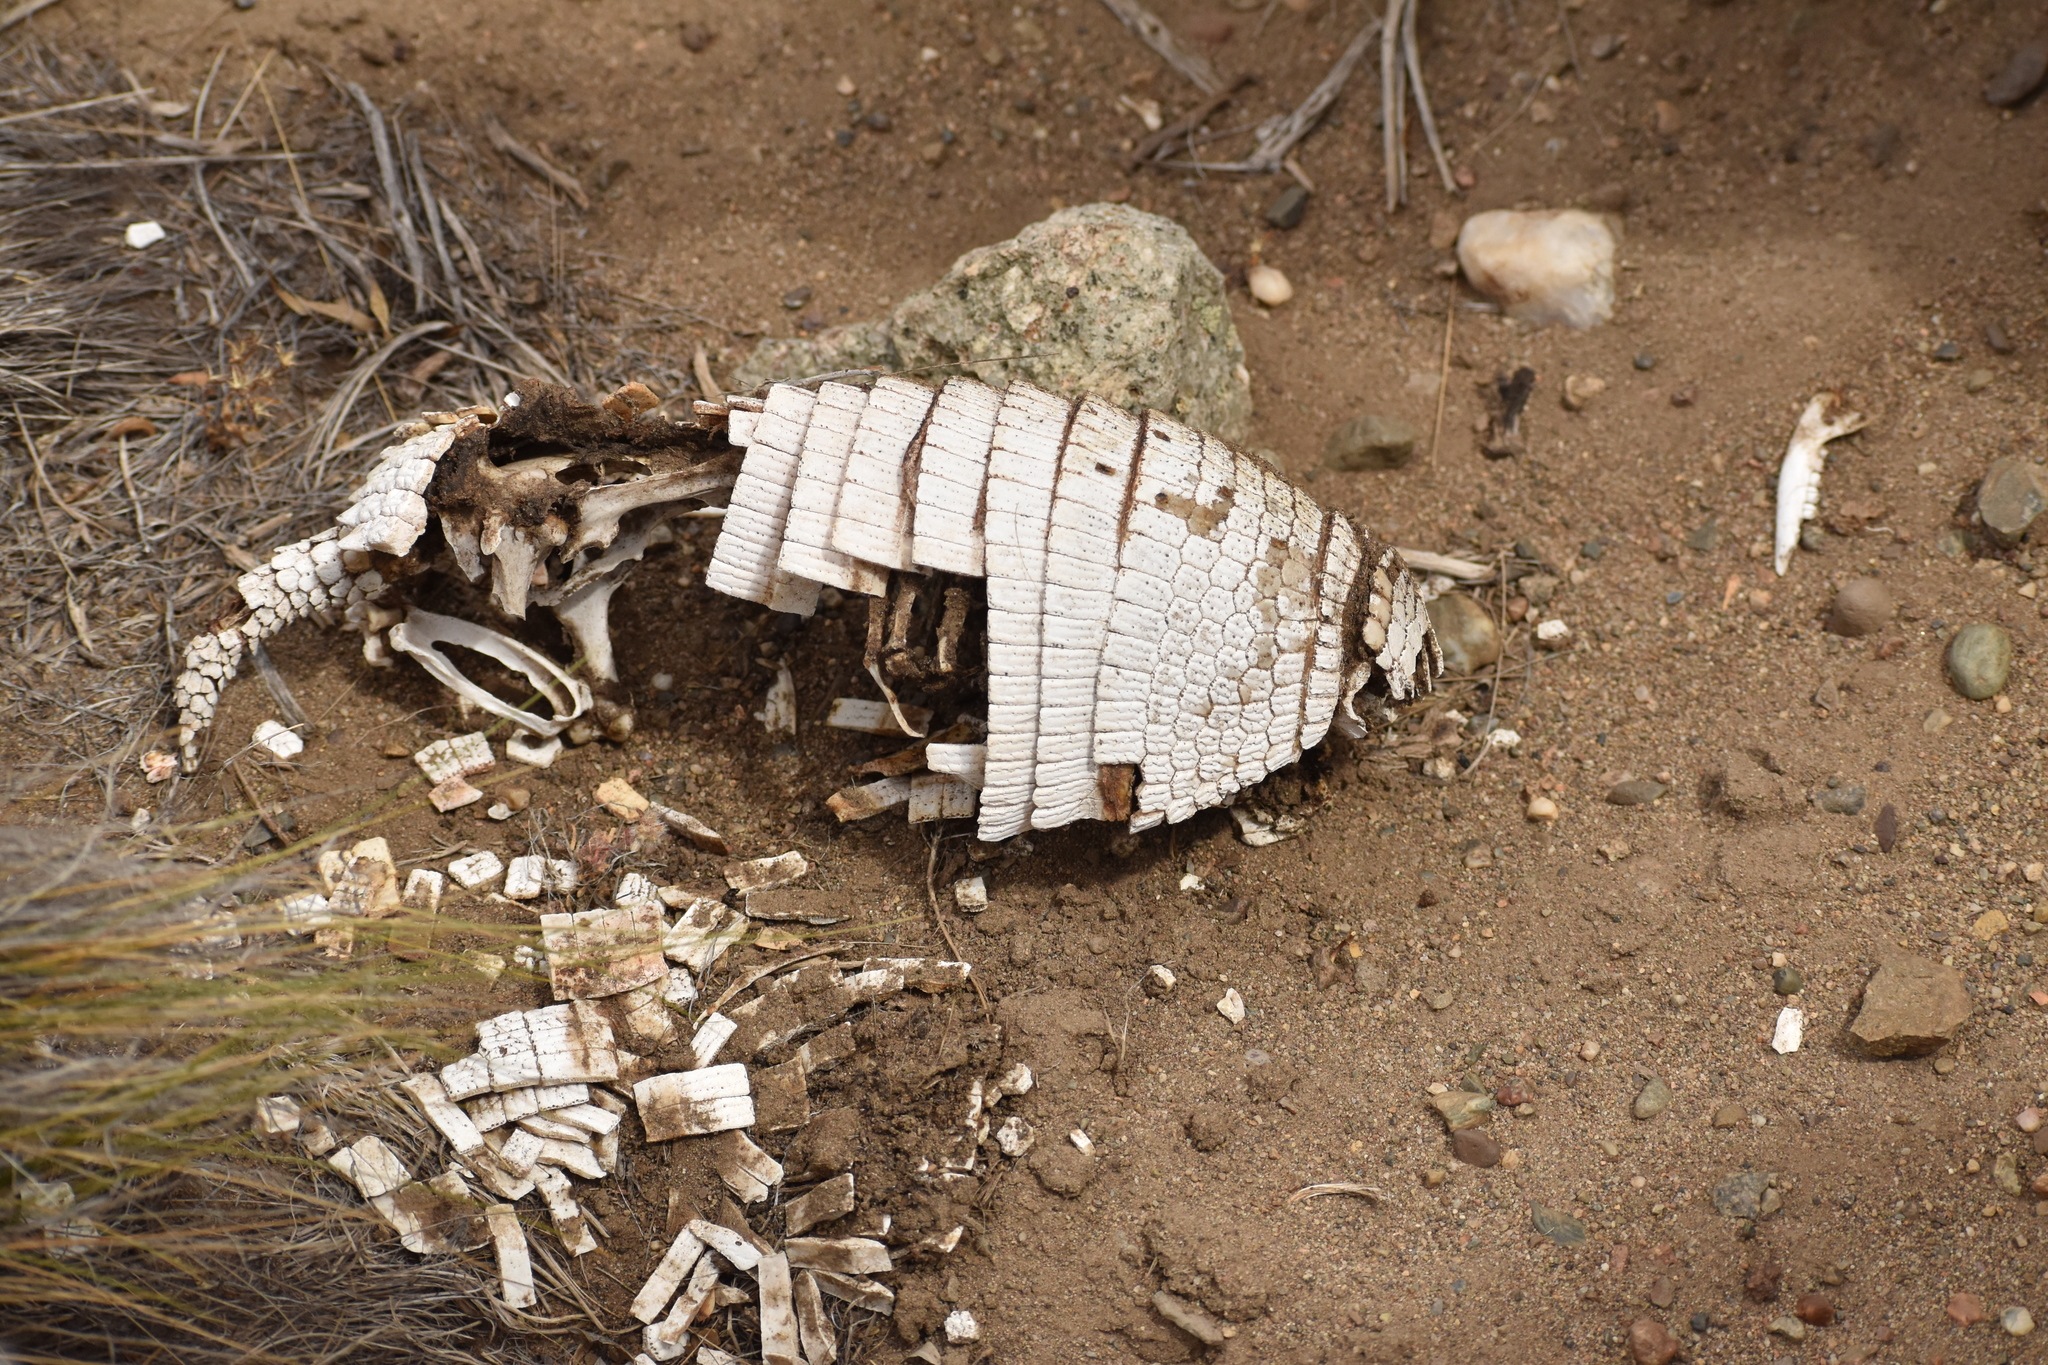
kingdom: Animalia
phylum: Chordata
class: Mammalia
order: Cingulata
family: Dasypodidae
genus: Zaedyus
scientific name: Zaedyus pichiy
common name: Pichi
